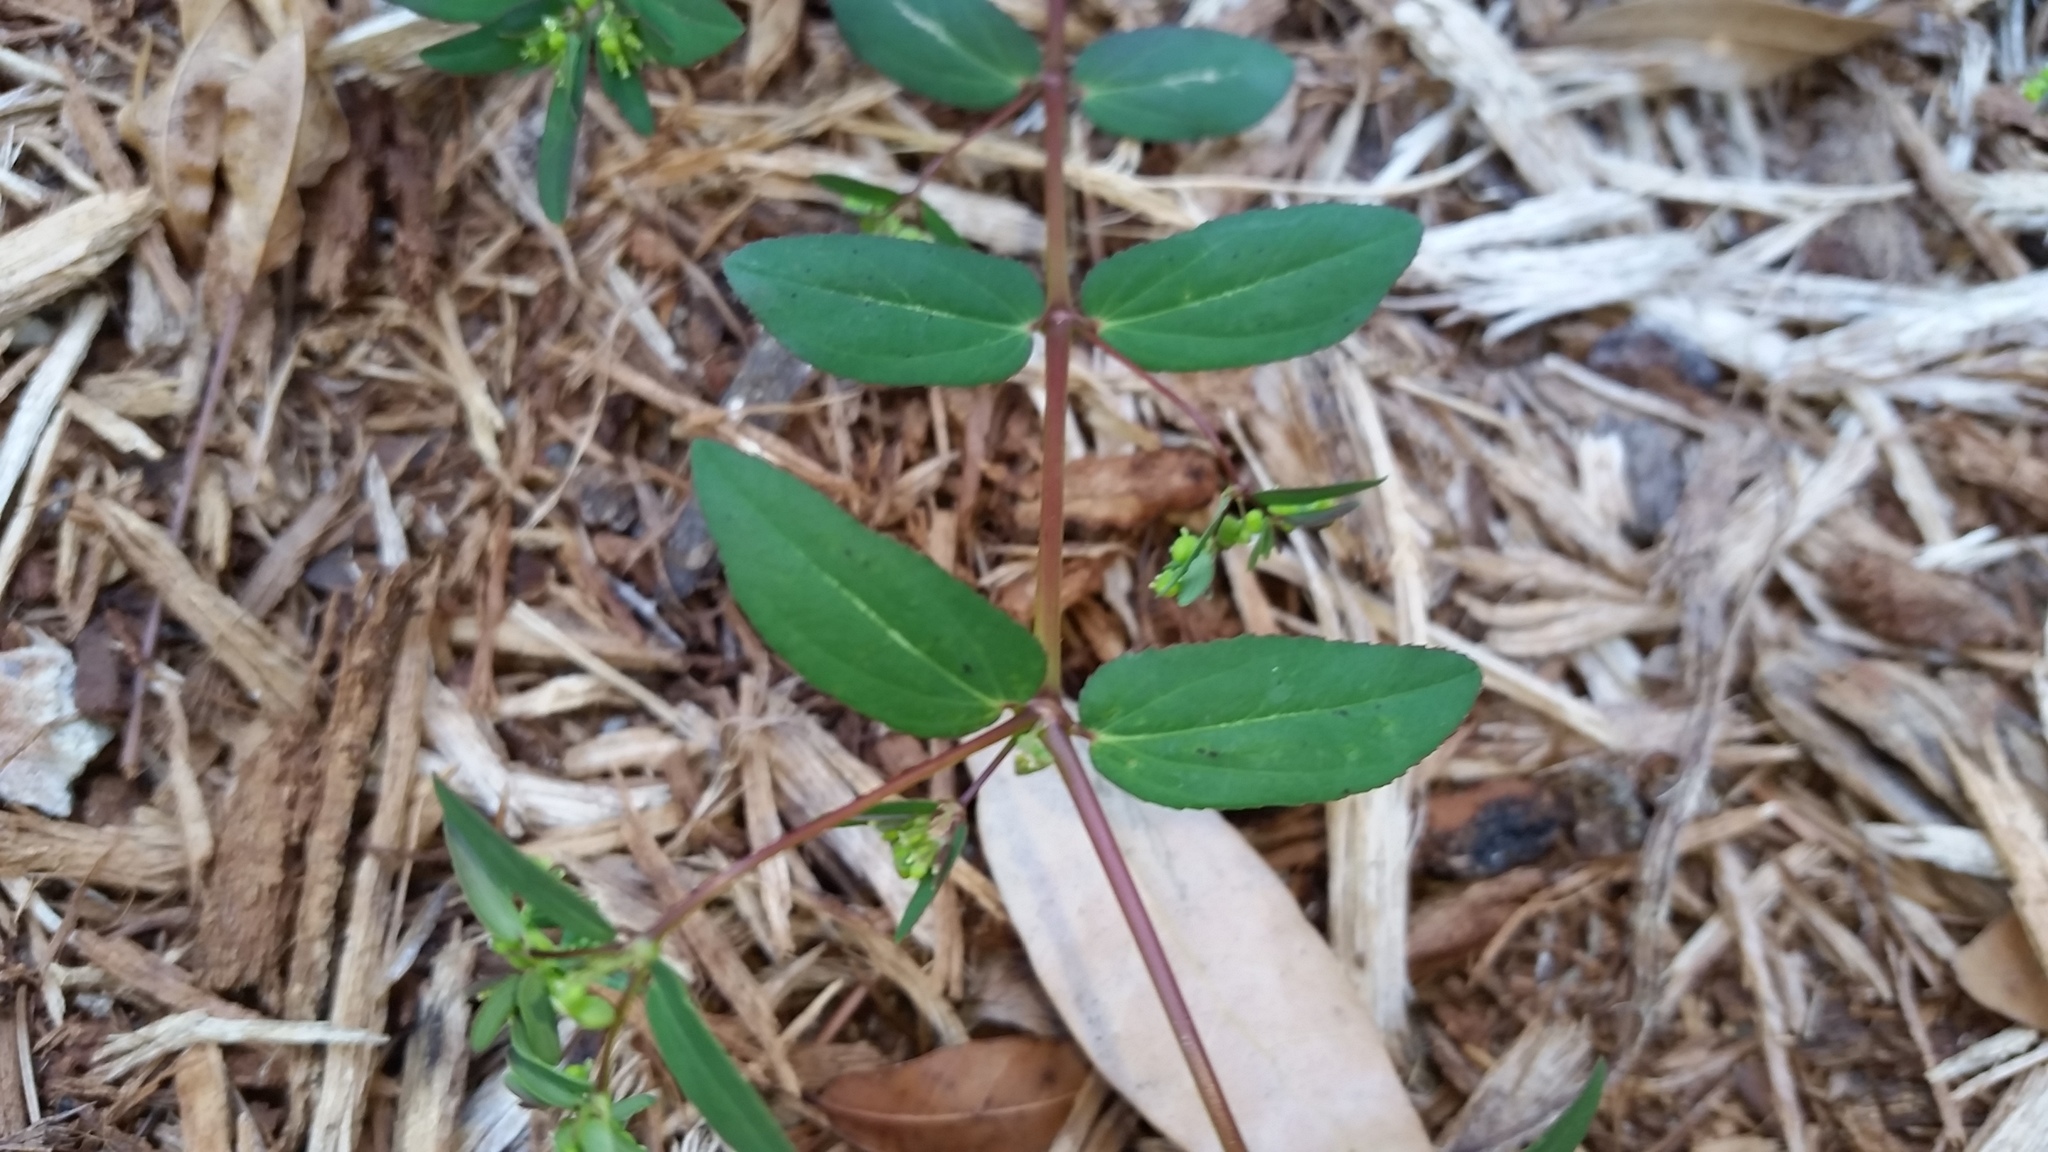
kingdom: Plantae
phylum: Tracheophyta
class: Magnoliopsida
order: Malpighiales
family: Euphorbiaceae
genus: Euphorbia
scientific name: Euphorbia hyssopifolia
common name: Hyssopleaf sandmat
